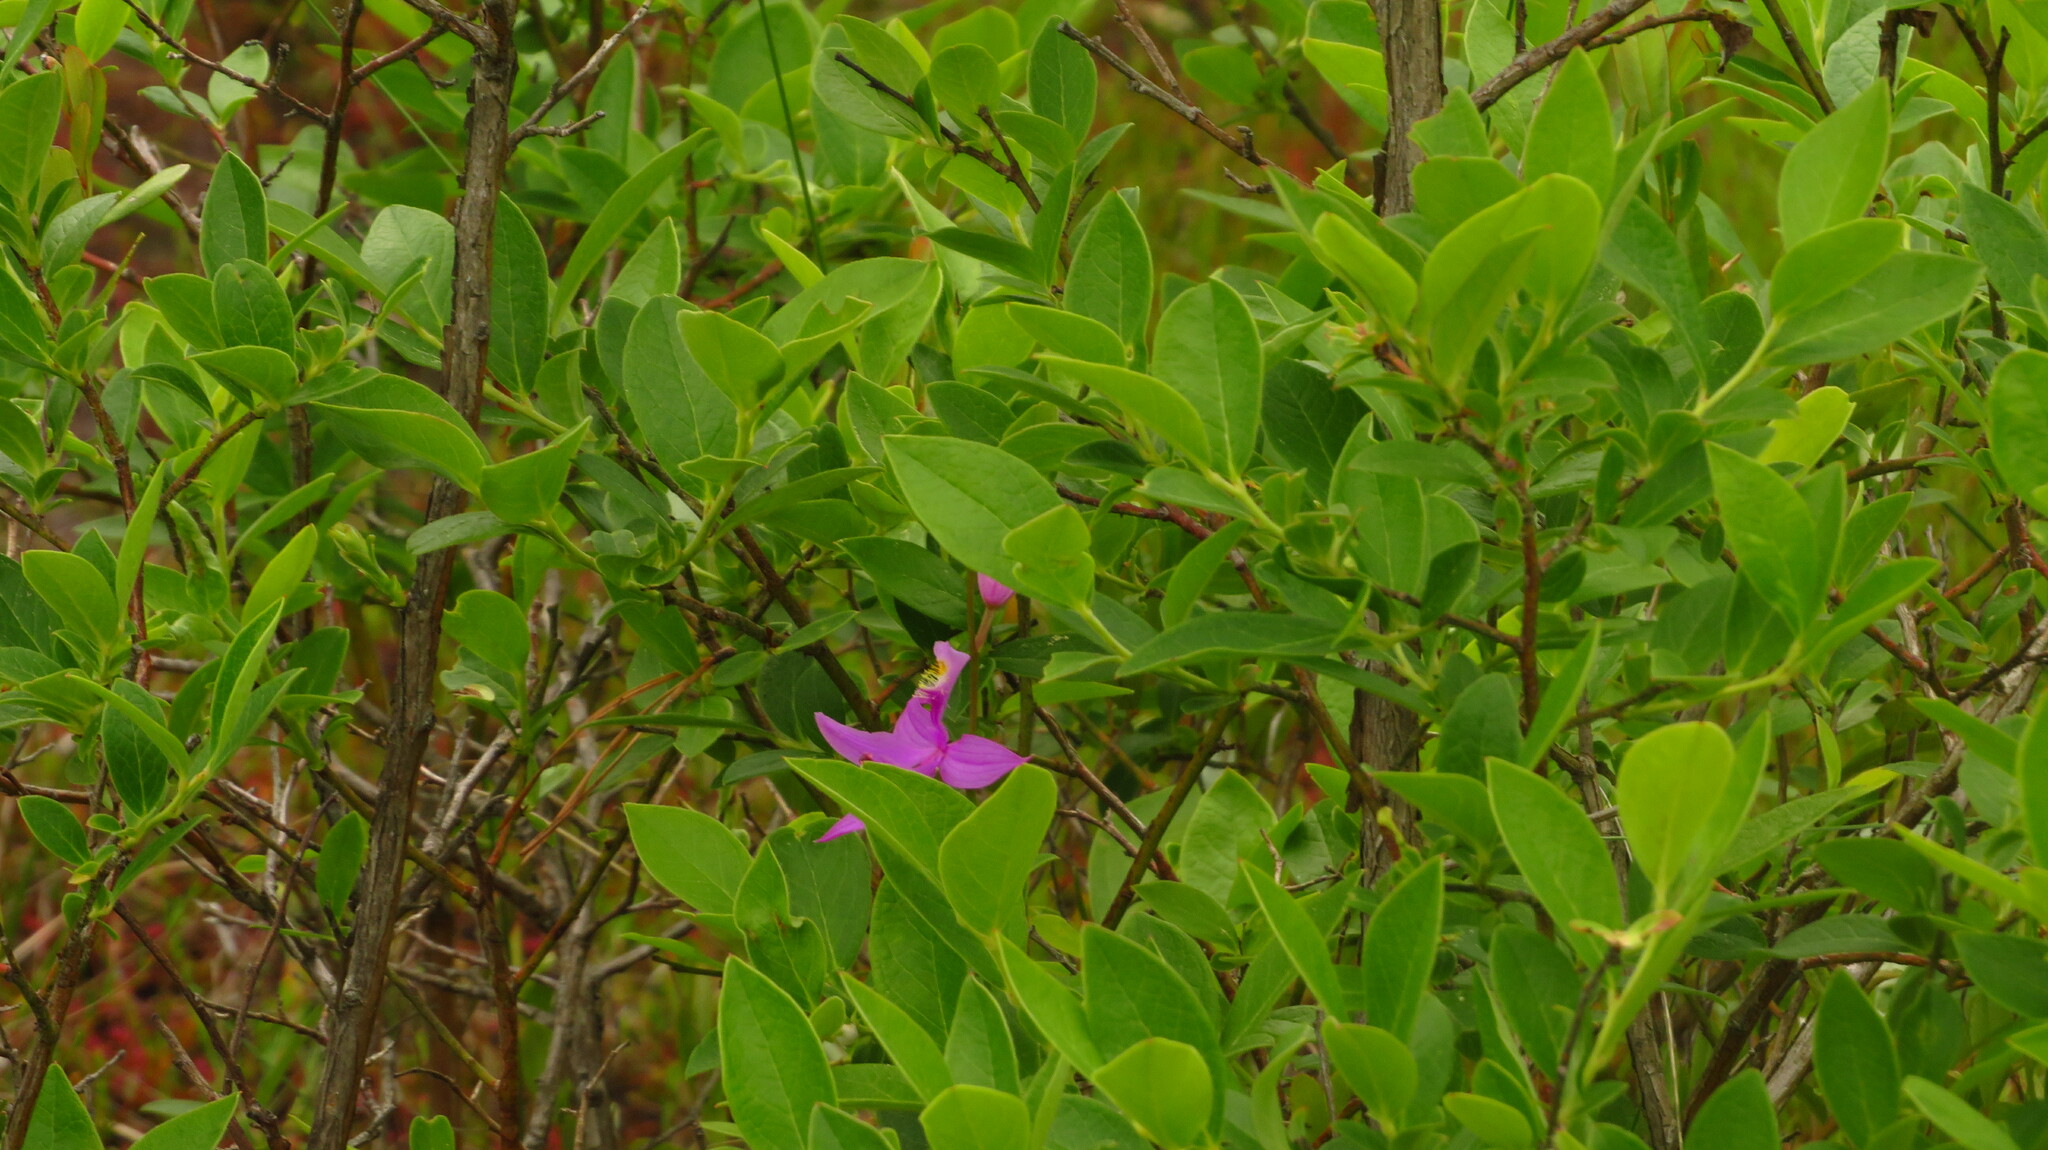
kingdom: Plantae
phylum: Tracheophyta
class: Liliopsida
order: Asparagales
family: Orchidaceae
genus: Calopogon
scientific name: Calopogon tuberosus
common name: Grass-pink
